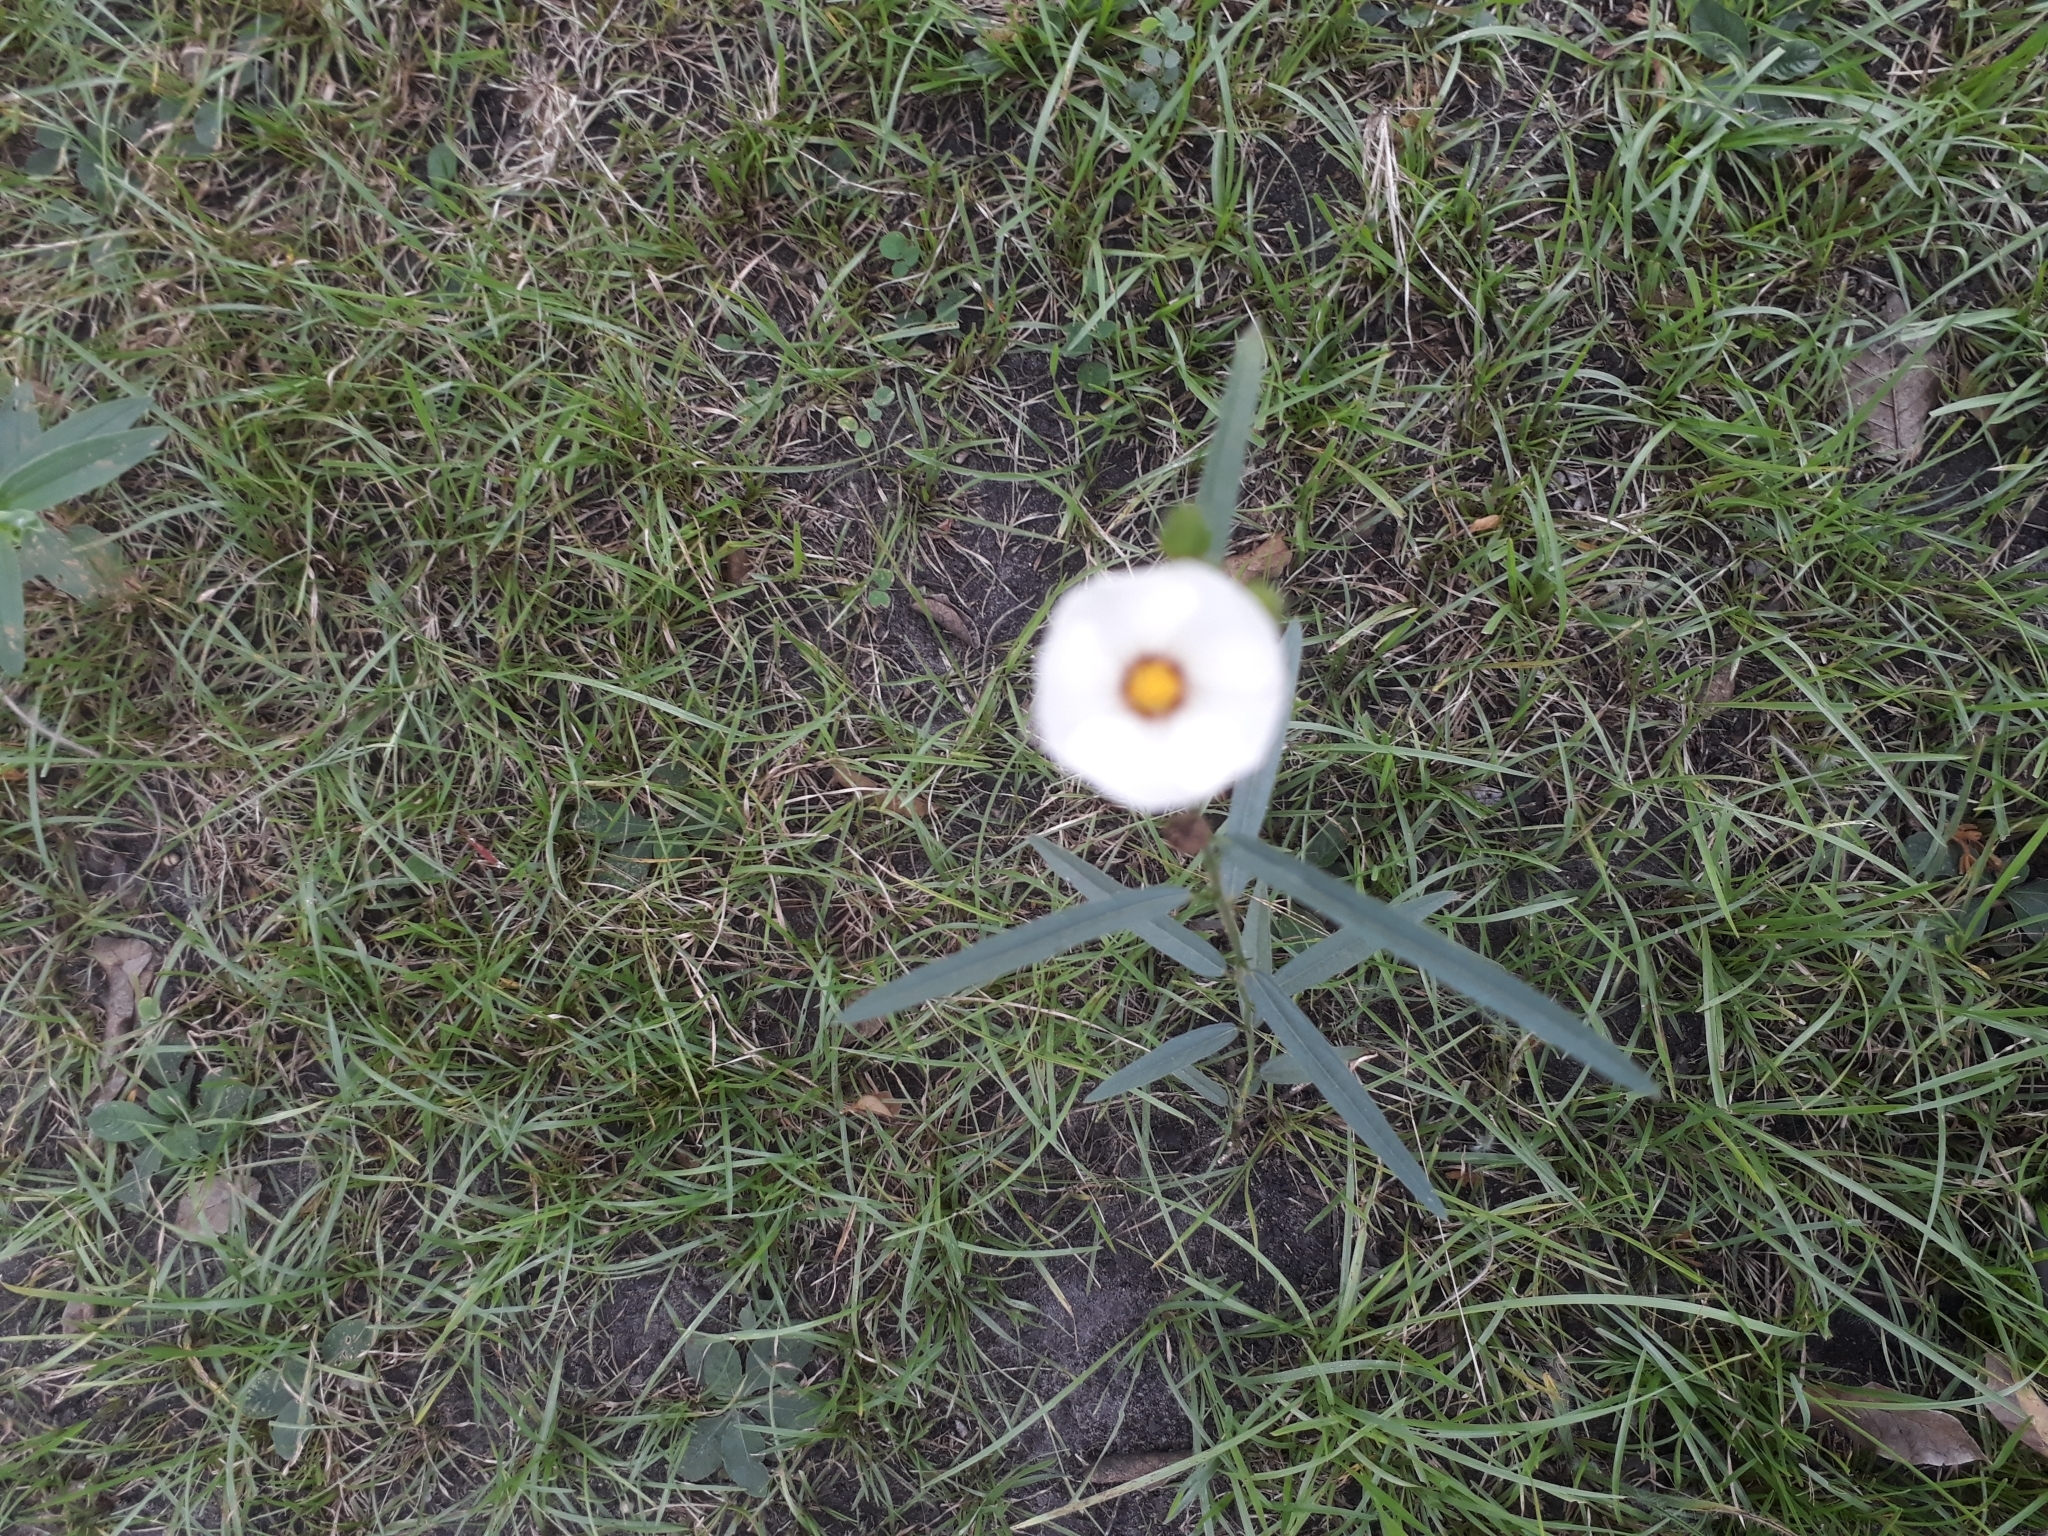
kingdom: Plantae
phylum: Tracheophyta
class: Magnoliopsida
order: Malvales
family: Malvaceae
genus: Sida
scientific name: Sida linifolia
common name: Flaxleaf fanpetals
